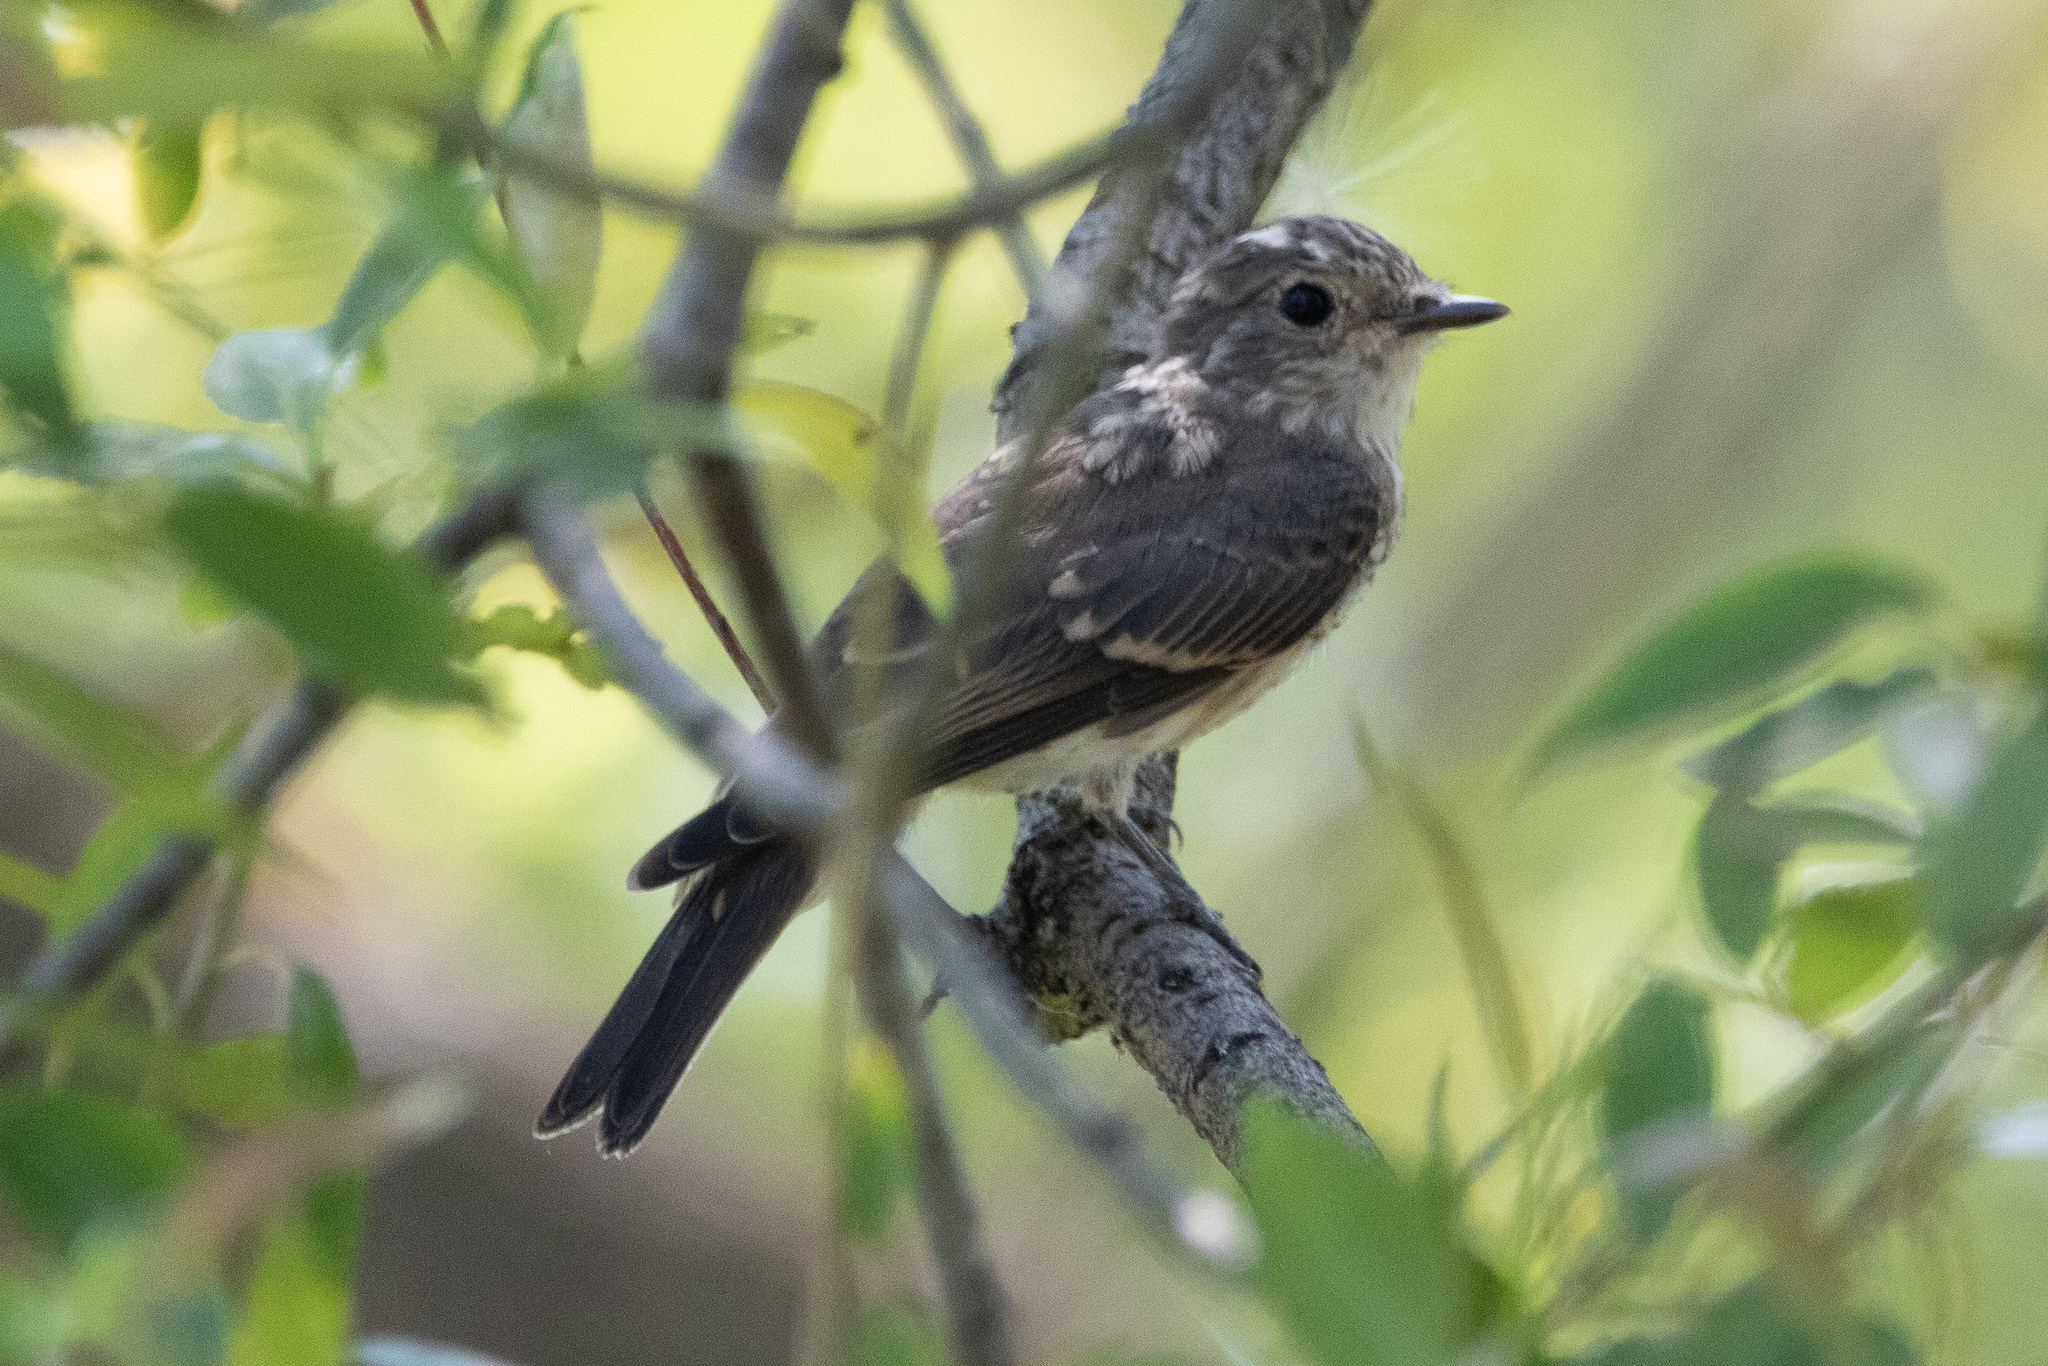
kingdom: Animalia
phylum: Chordata
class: Aves
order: Passeriformes
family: Muscicapidae
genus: Muscicapa
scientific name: Muscicapa striata
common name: Spotted flycatcher
